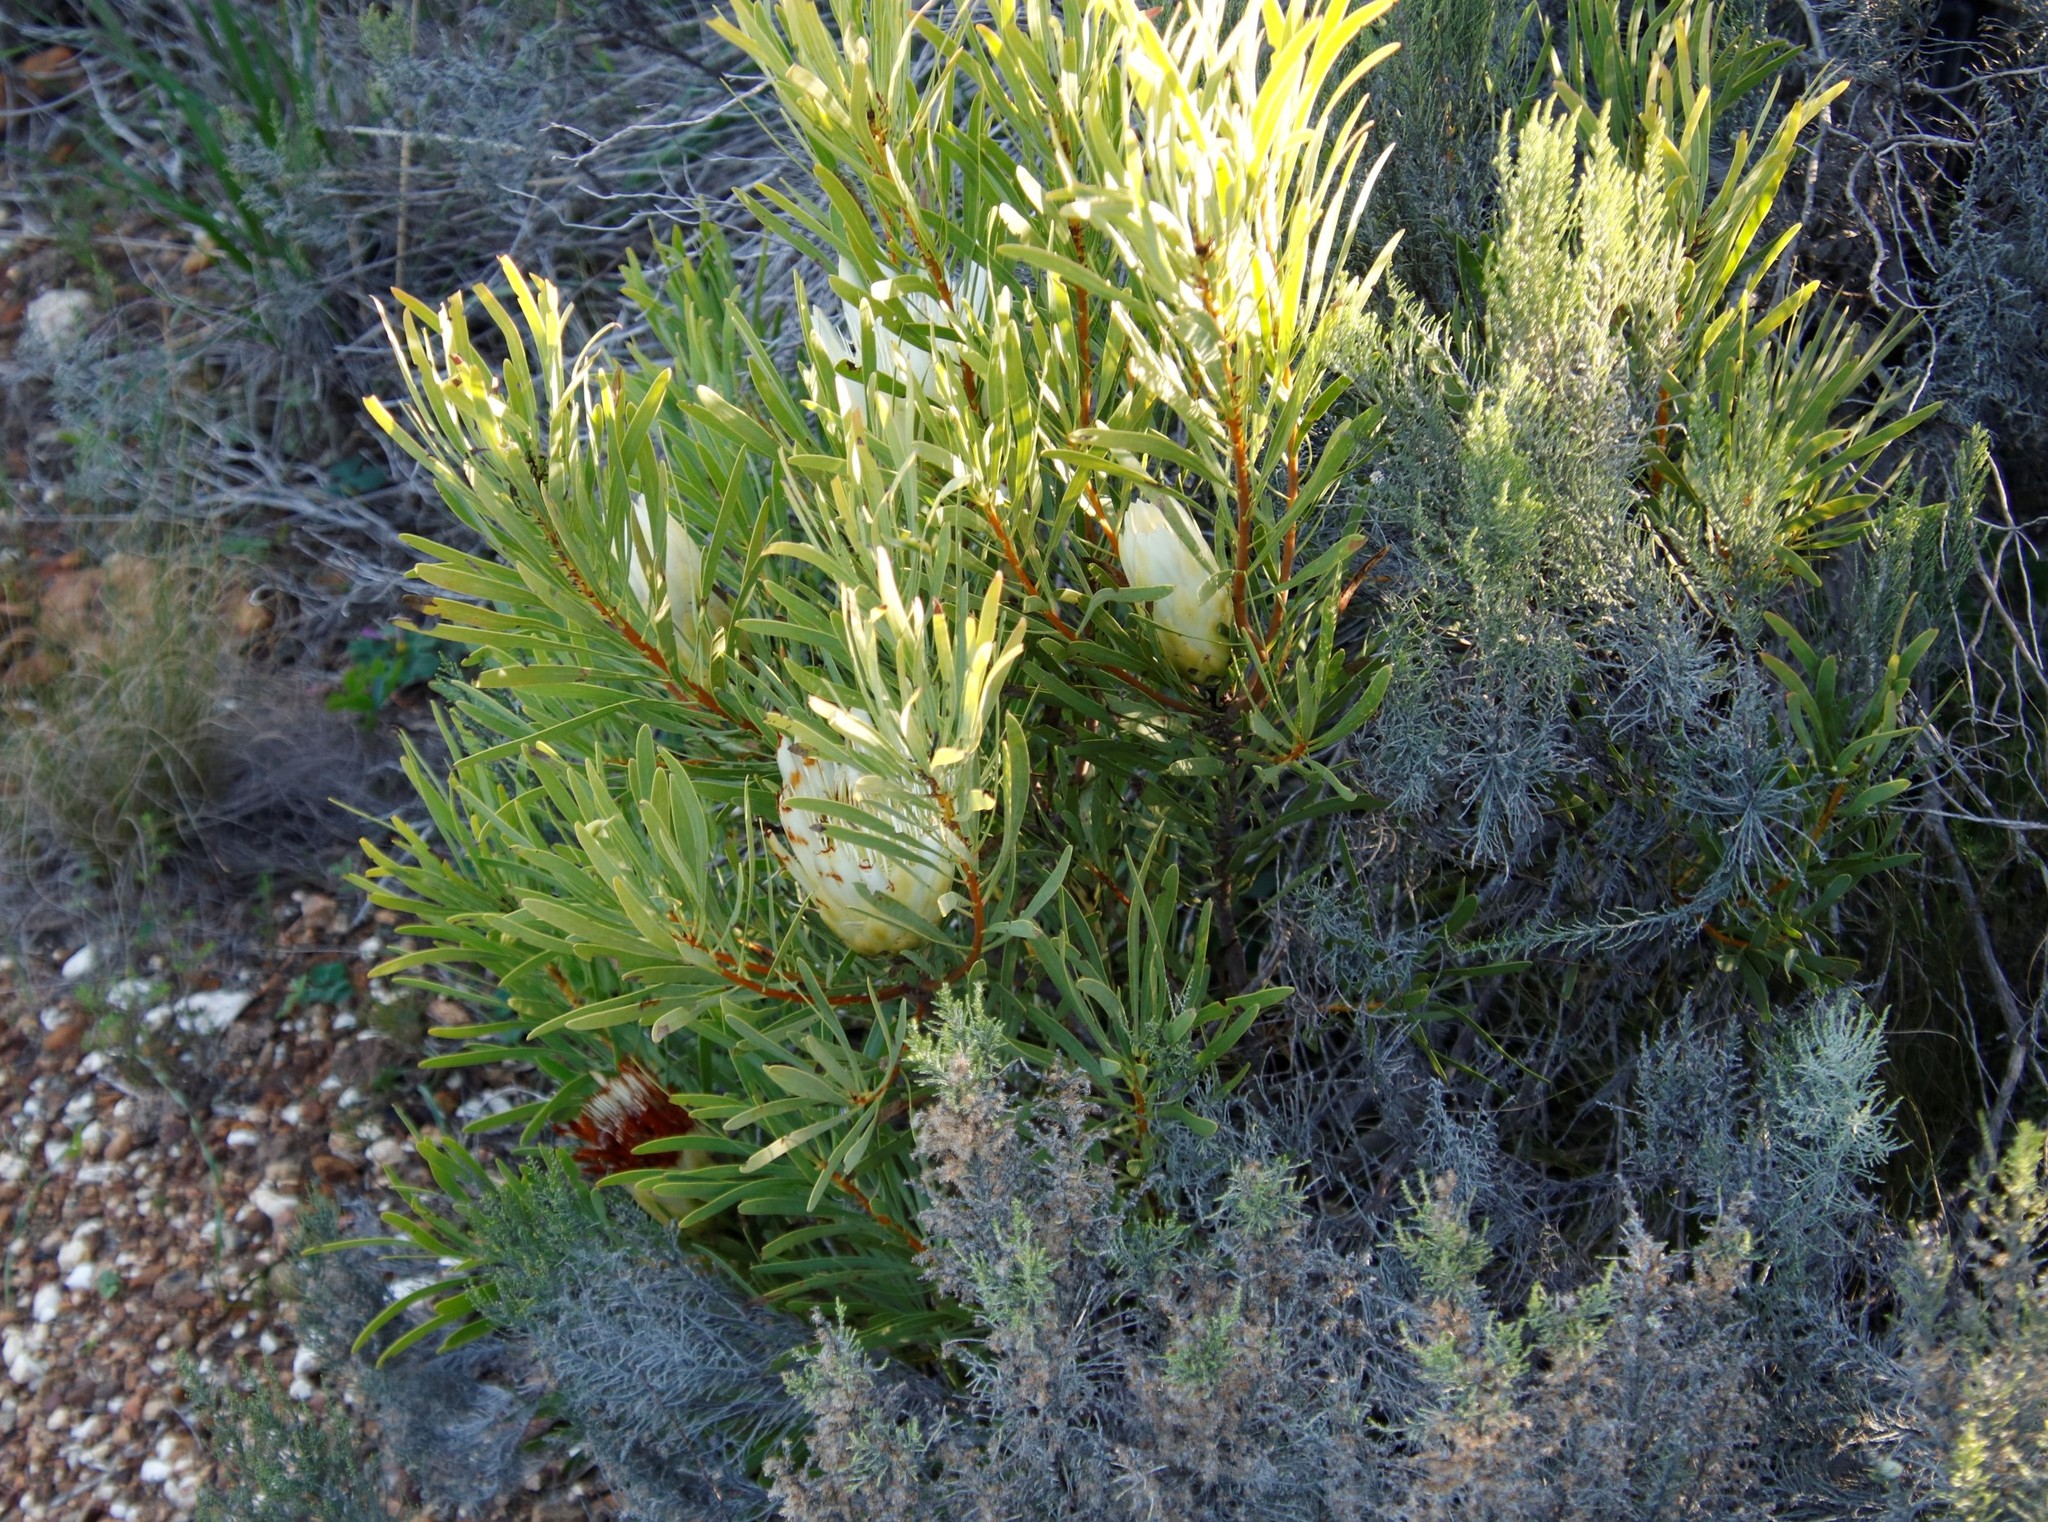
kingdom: Plantae
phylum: Tracheophyta
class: Magnoliopsida
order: Proteales
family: Proteaceae
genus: Protea
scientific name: Protea repens
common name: Sugarbush
